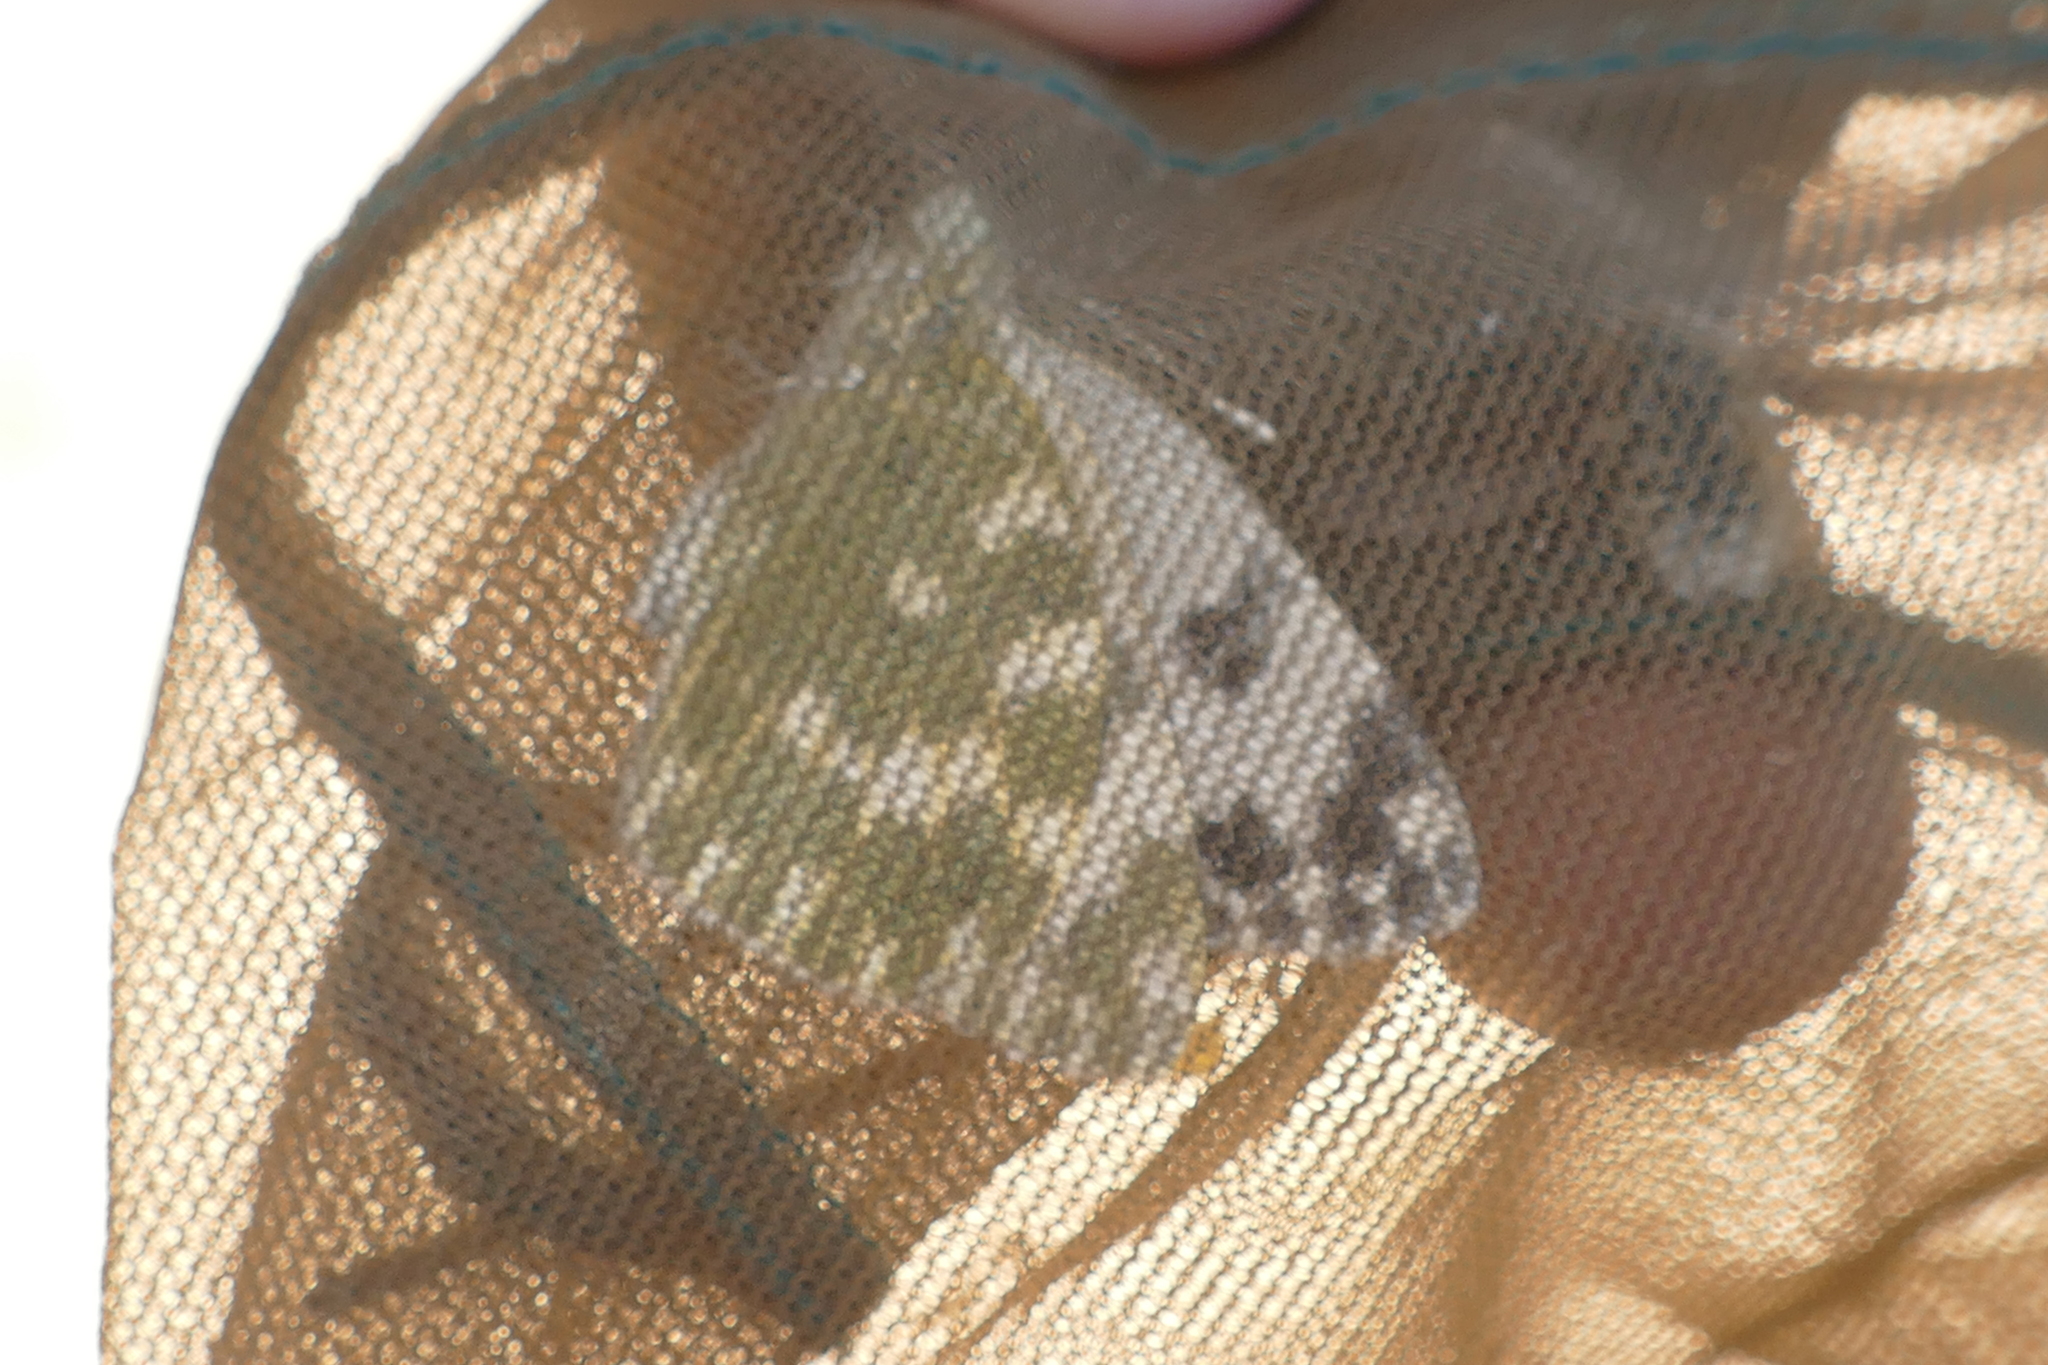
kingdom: Animalia
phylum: Arthropoda
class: Insecta
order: Lepidoptera
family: Pieridae
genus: Pontia
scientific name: Pontia daplidice
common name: Bath white
